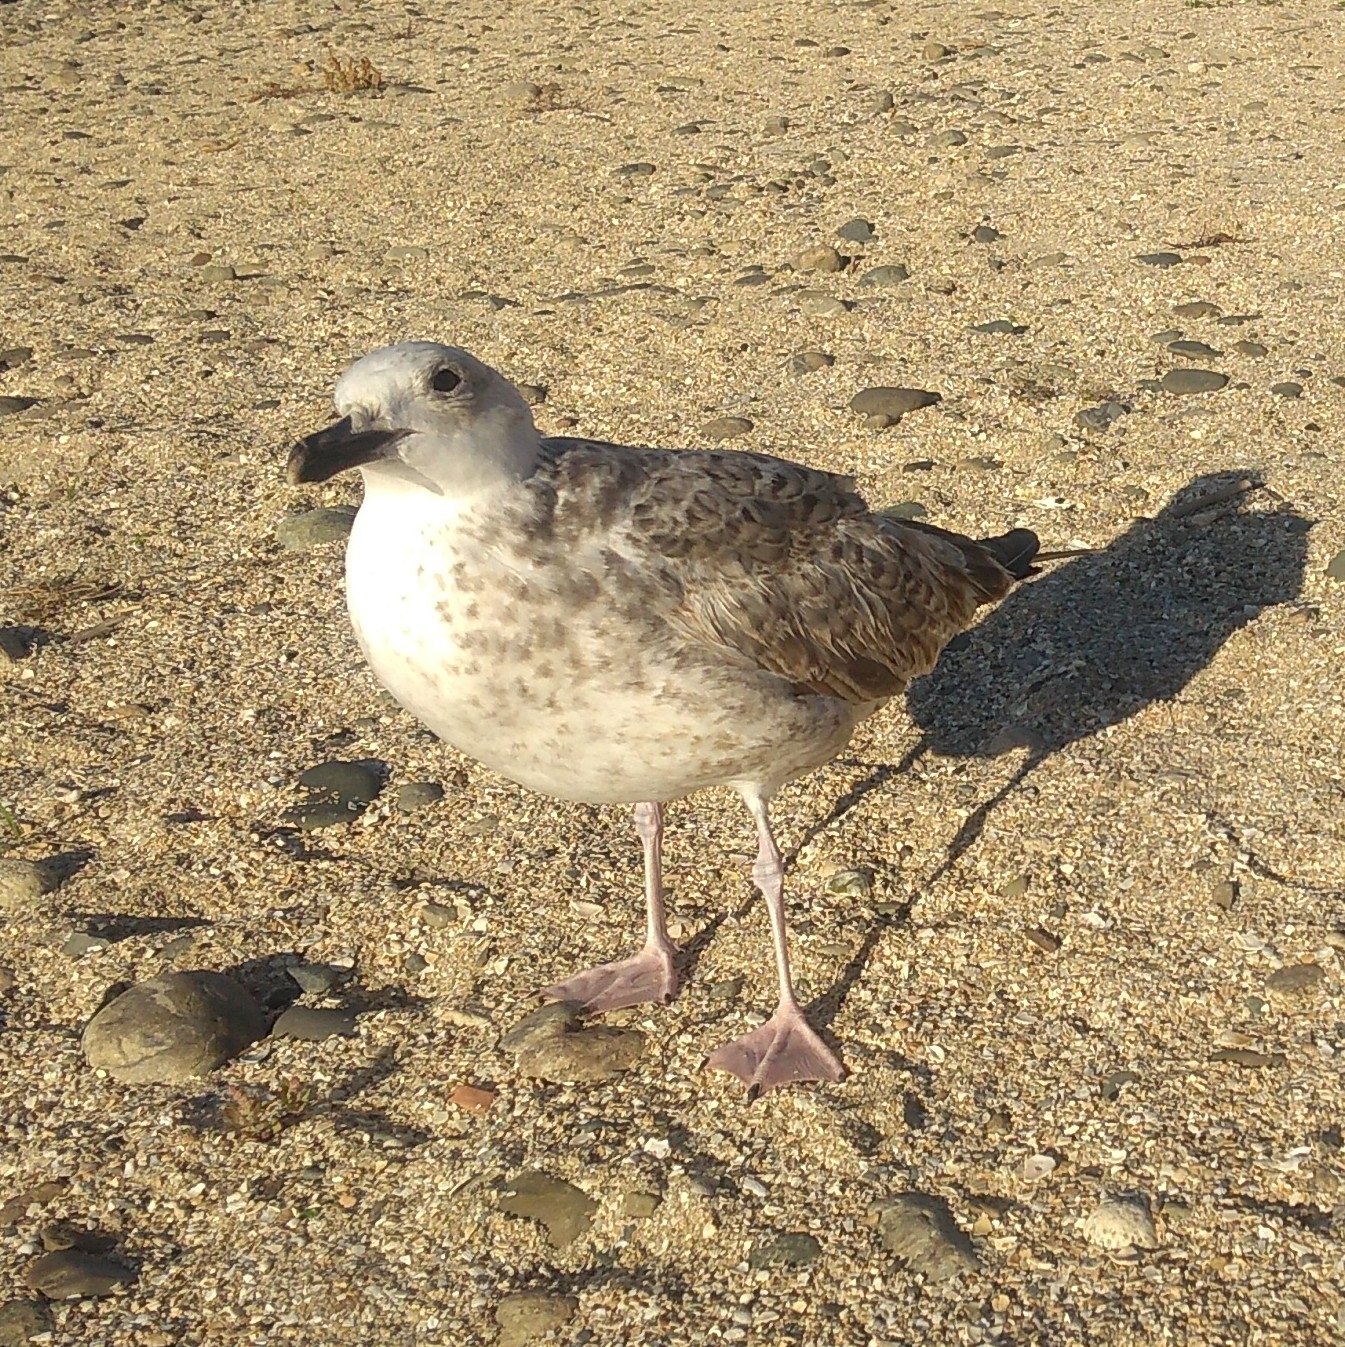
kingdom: Animalia
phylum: Chordata
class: Aves
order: Charadriiformes
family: Laridae
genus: Larus
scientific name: Larus michahellis
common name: Yellow-legged gull
